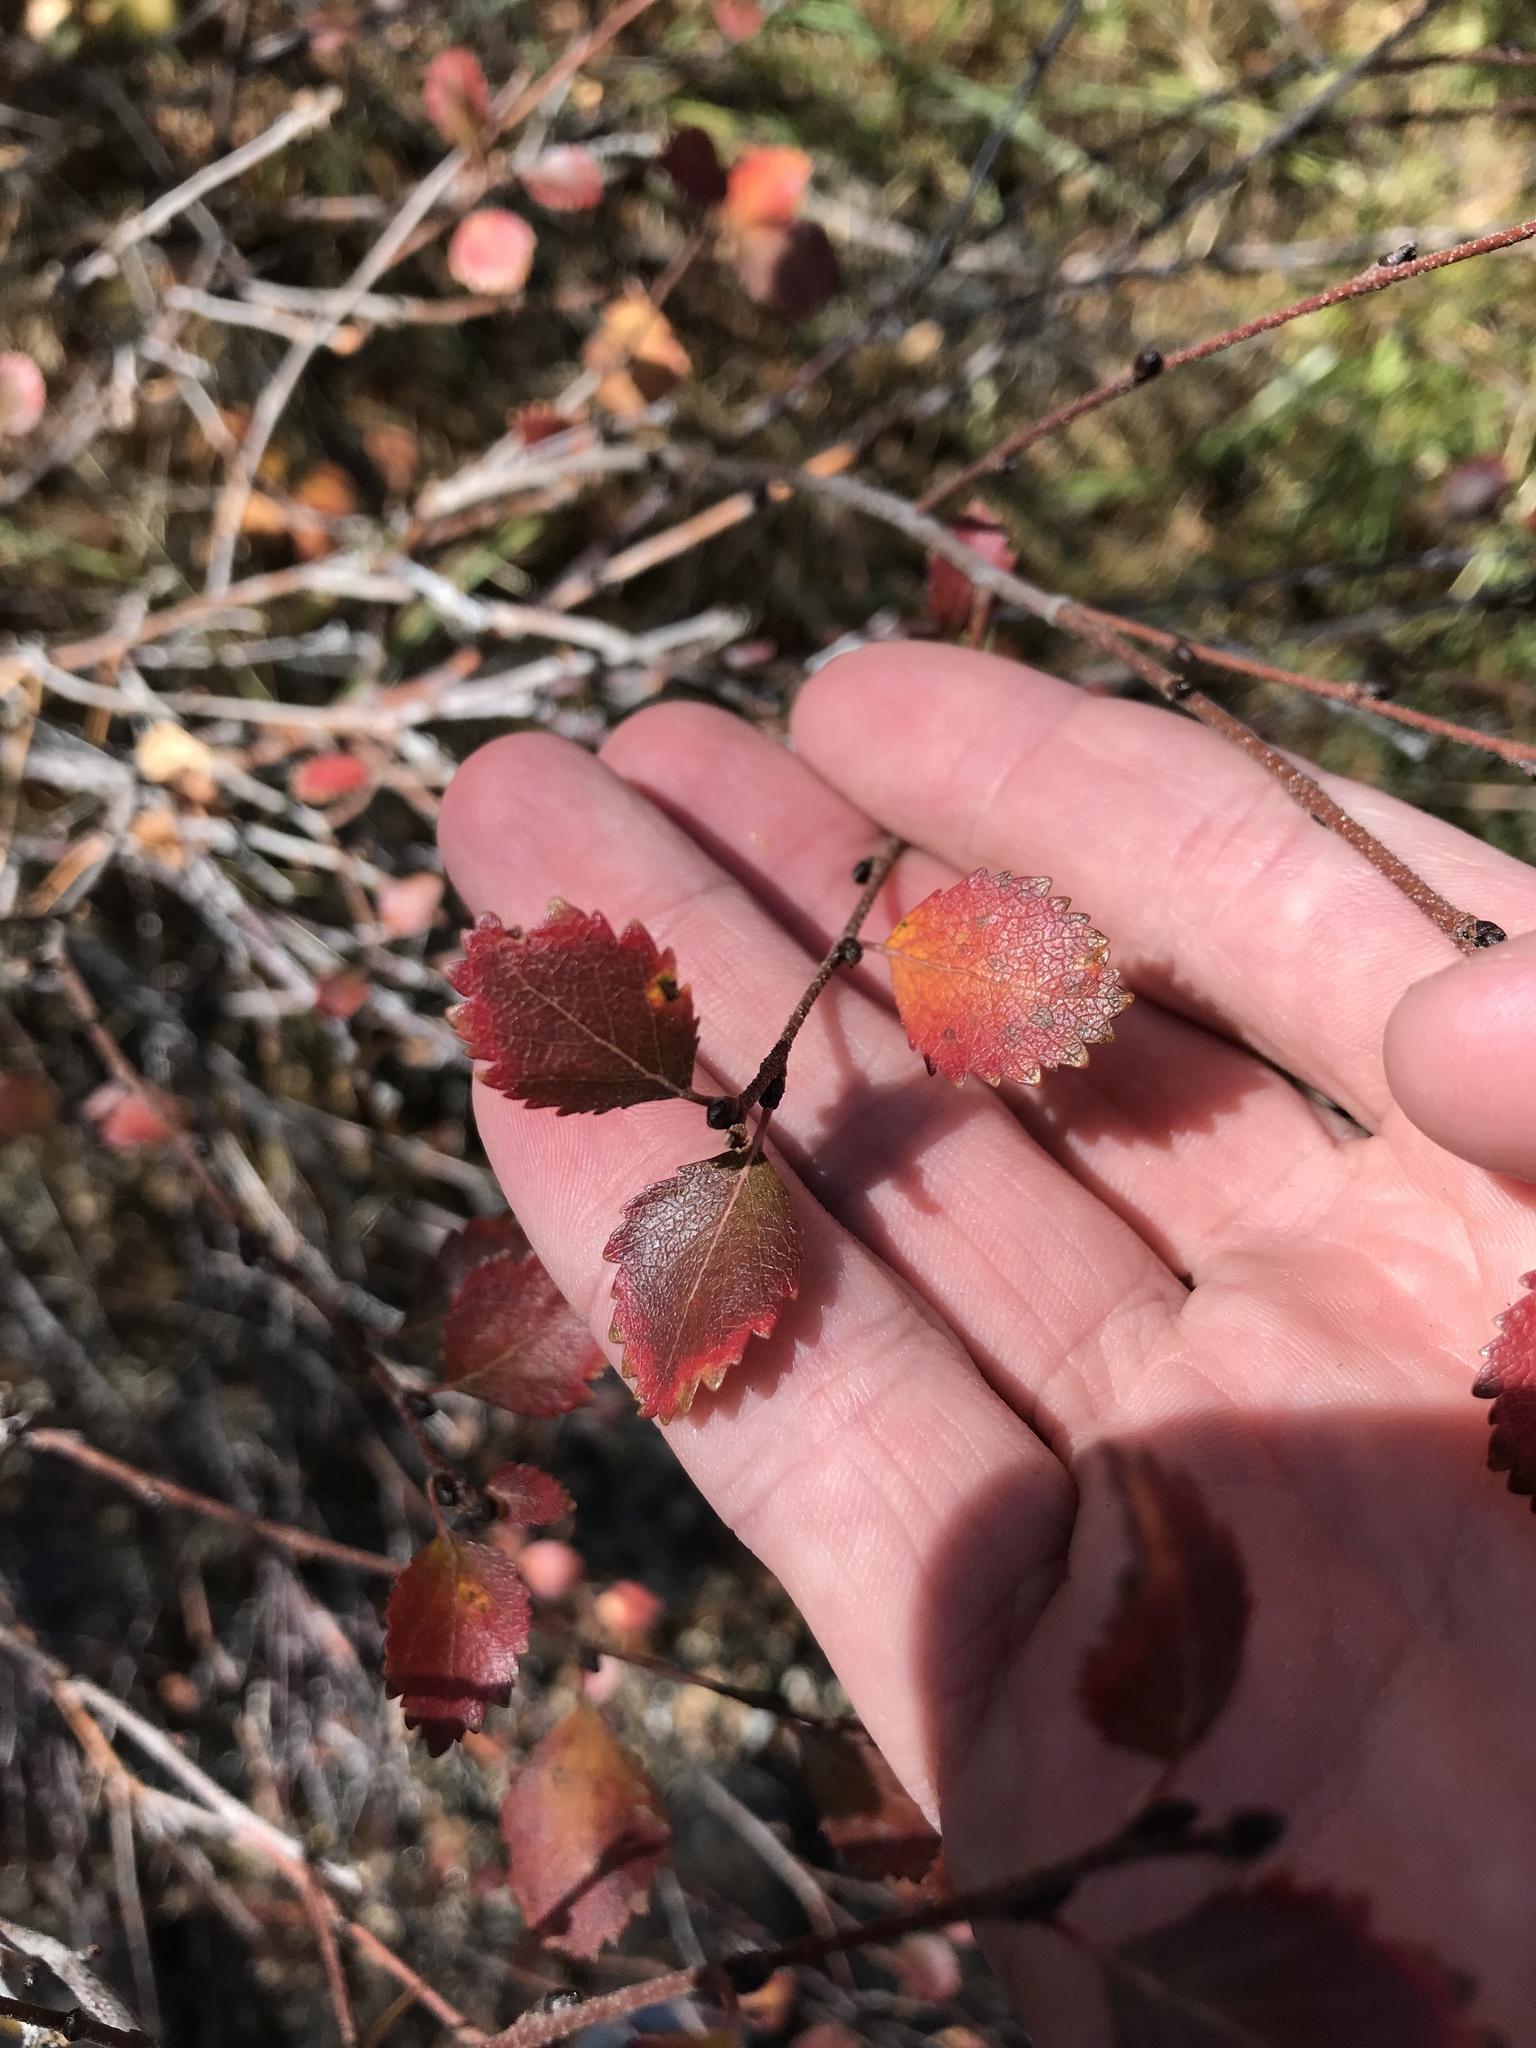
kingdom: Plantae
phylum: Tracheophyta
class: Magnoliopsida
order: Fagales
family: Betulaceae
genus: Betula
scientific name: Betula nana
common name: Arctic dwarf birch
